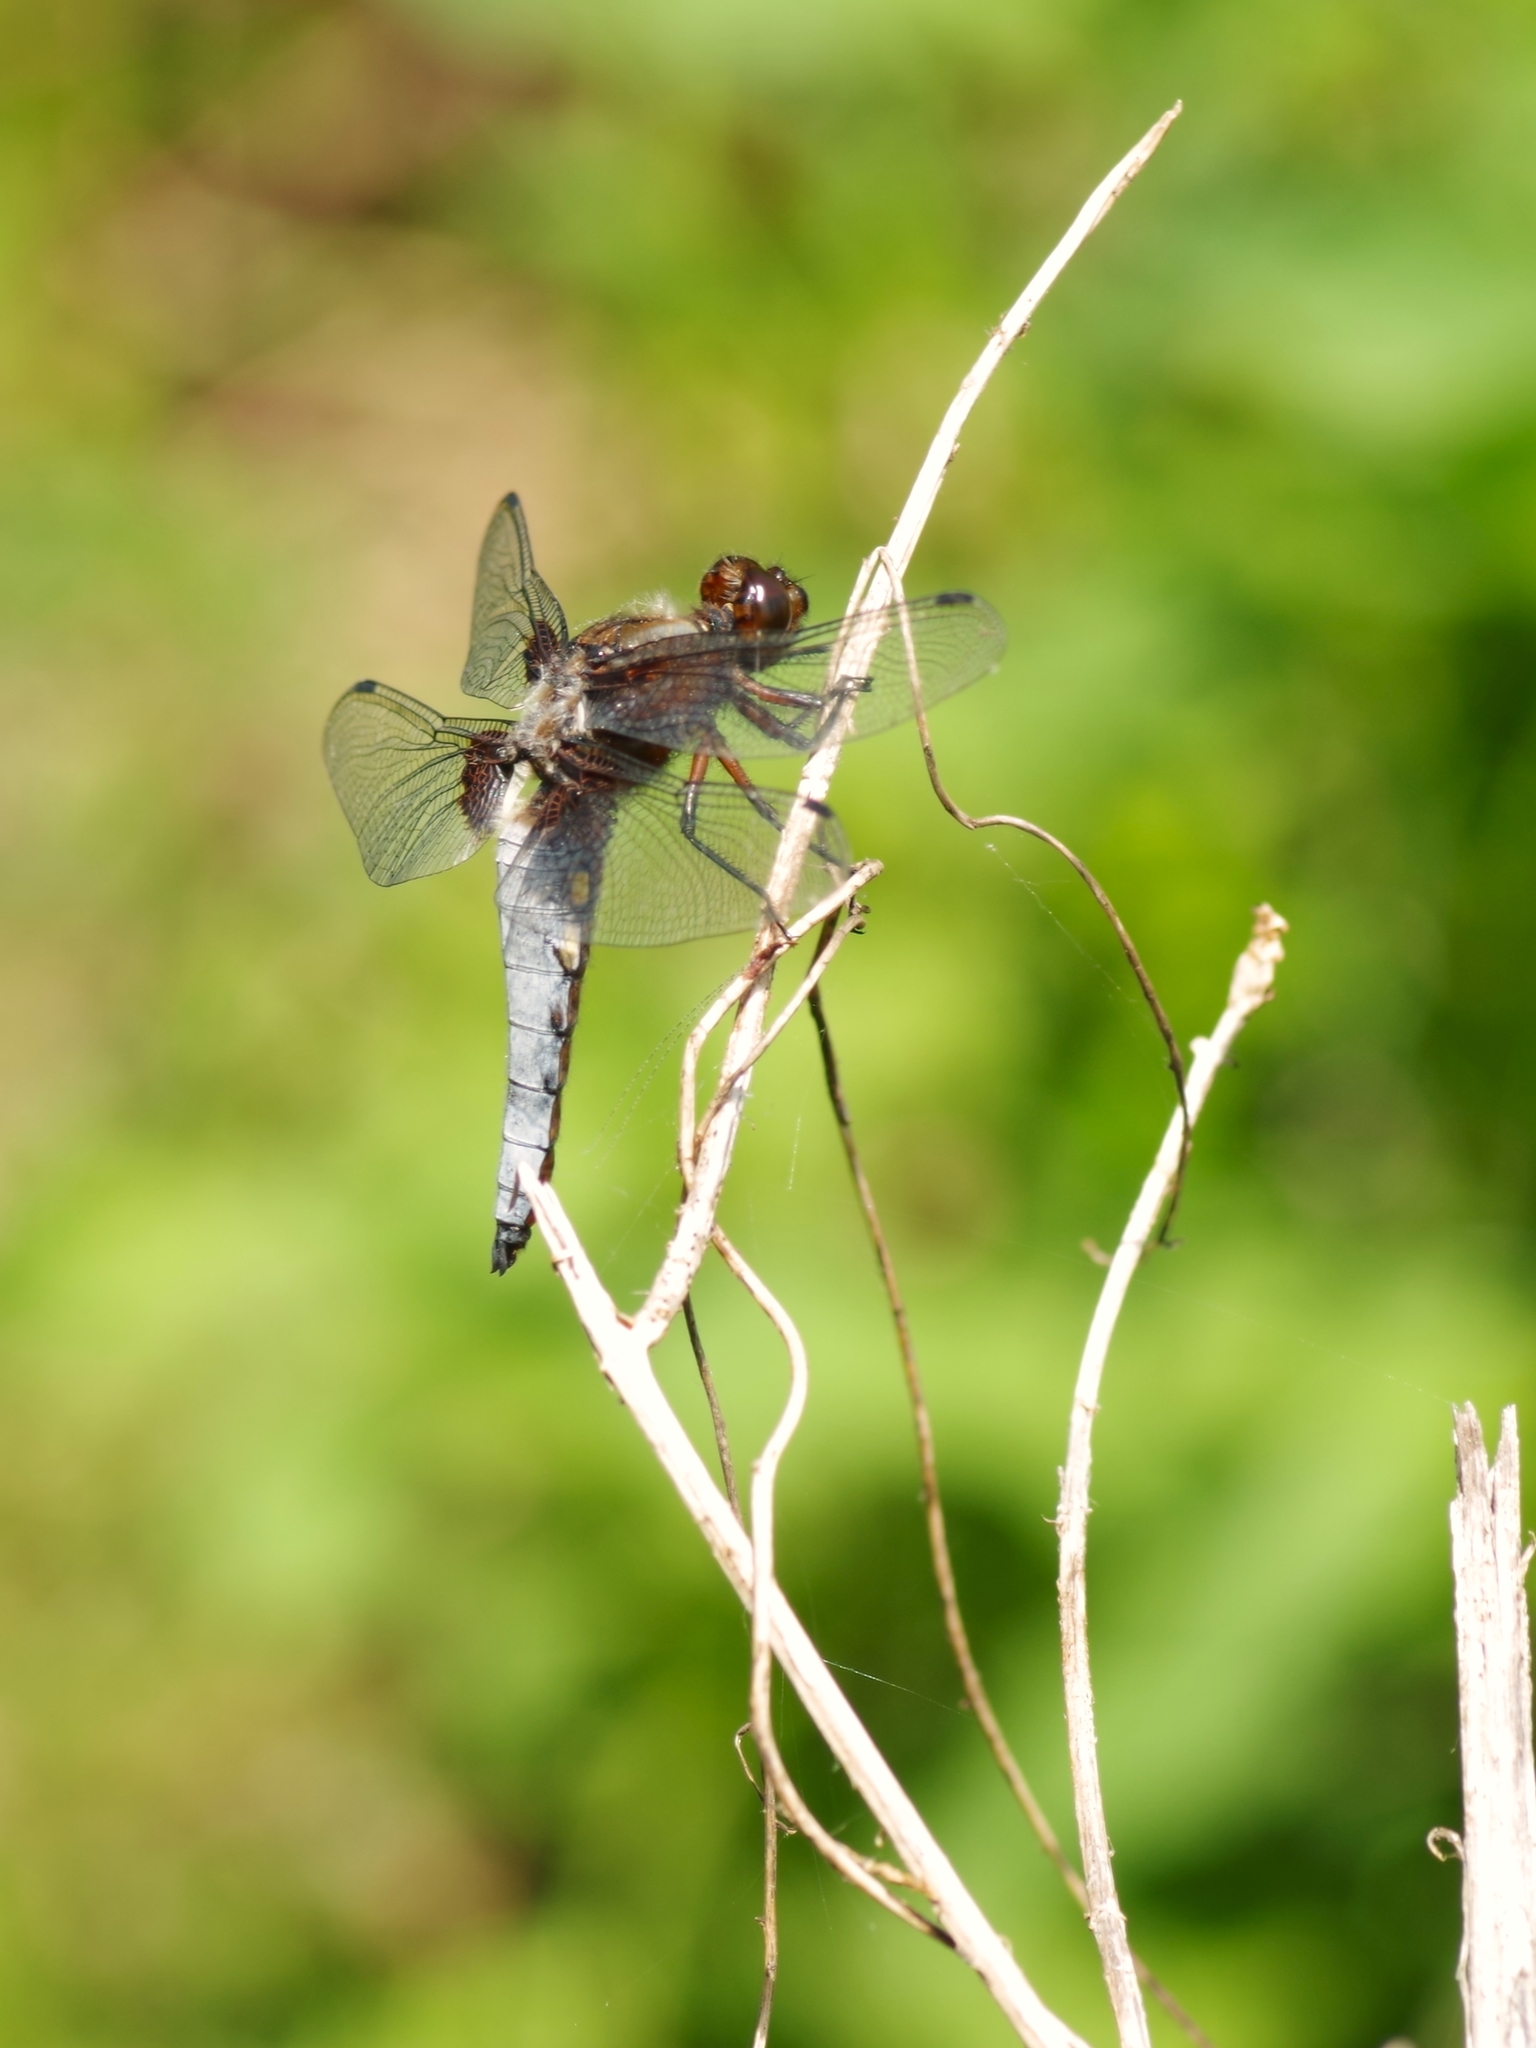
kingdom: Animalia
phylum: Arthropoda
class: Insecta
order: Odonata
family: Libellulidae
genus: Libellula
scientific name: Libellula depressa
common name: Broad-bodied chaser
